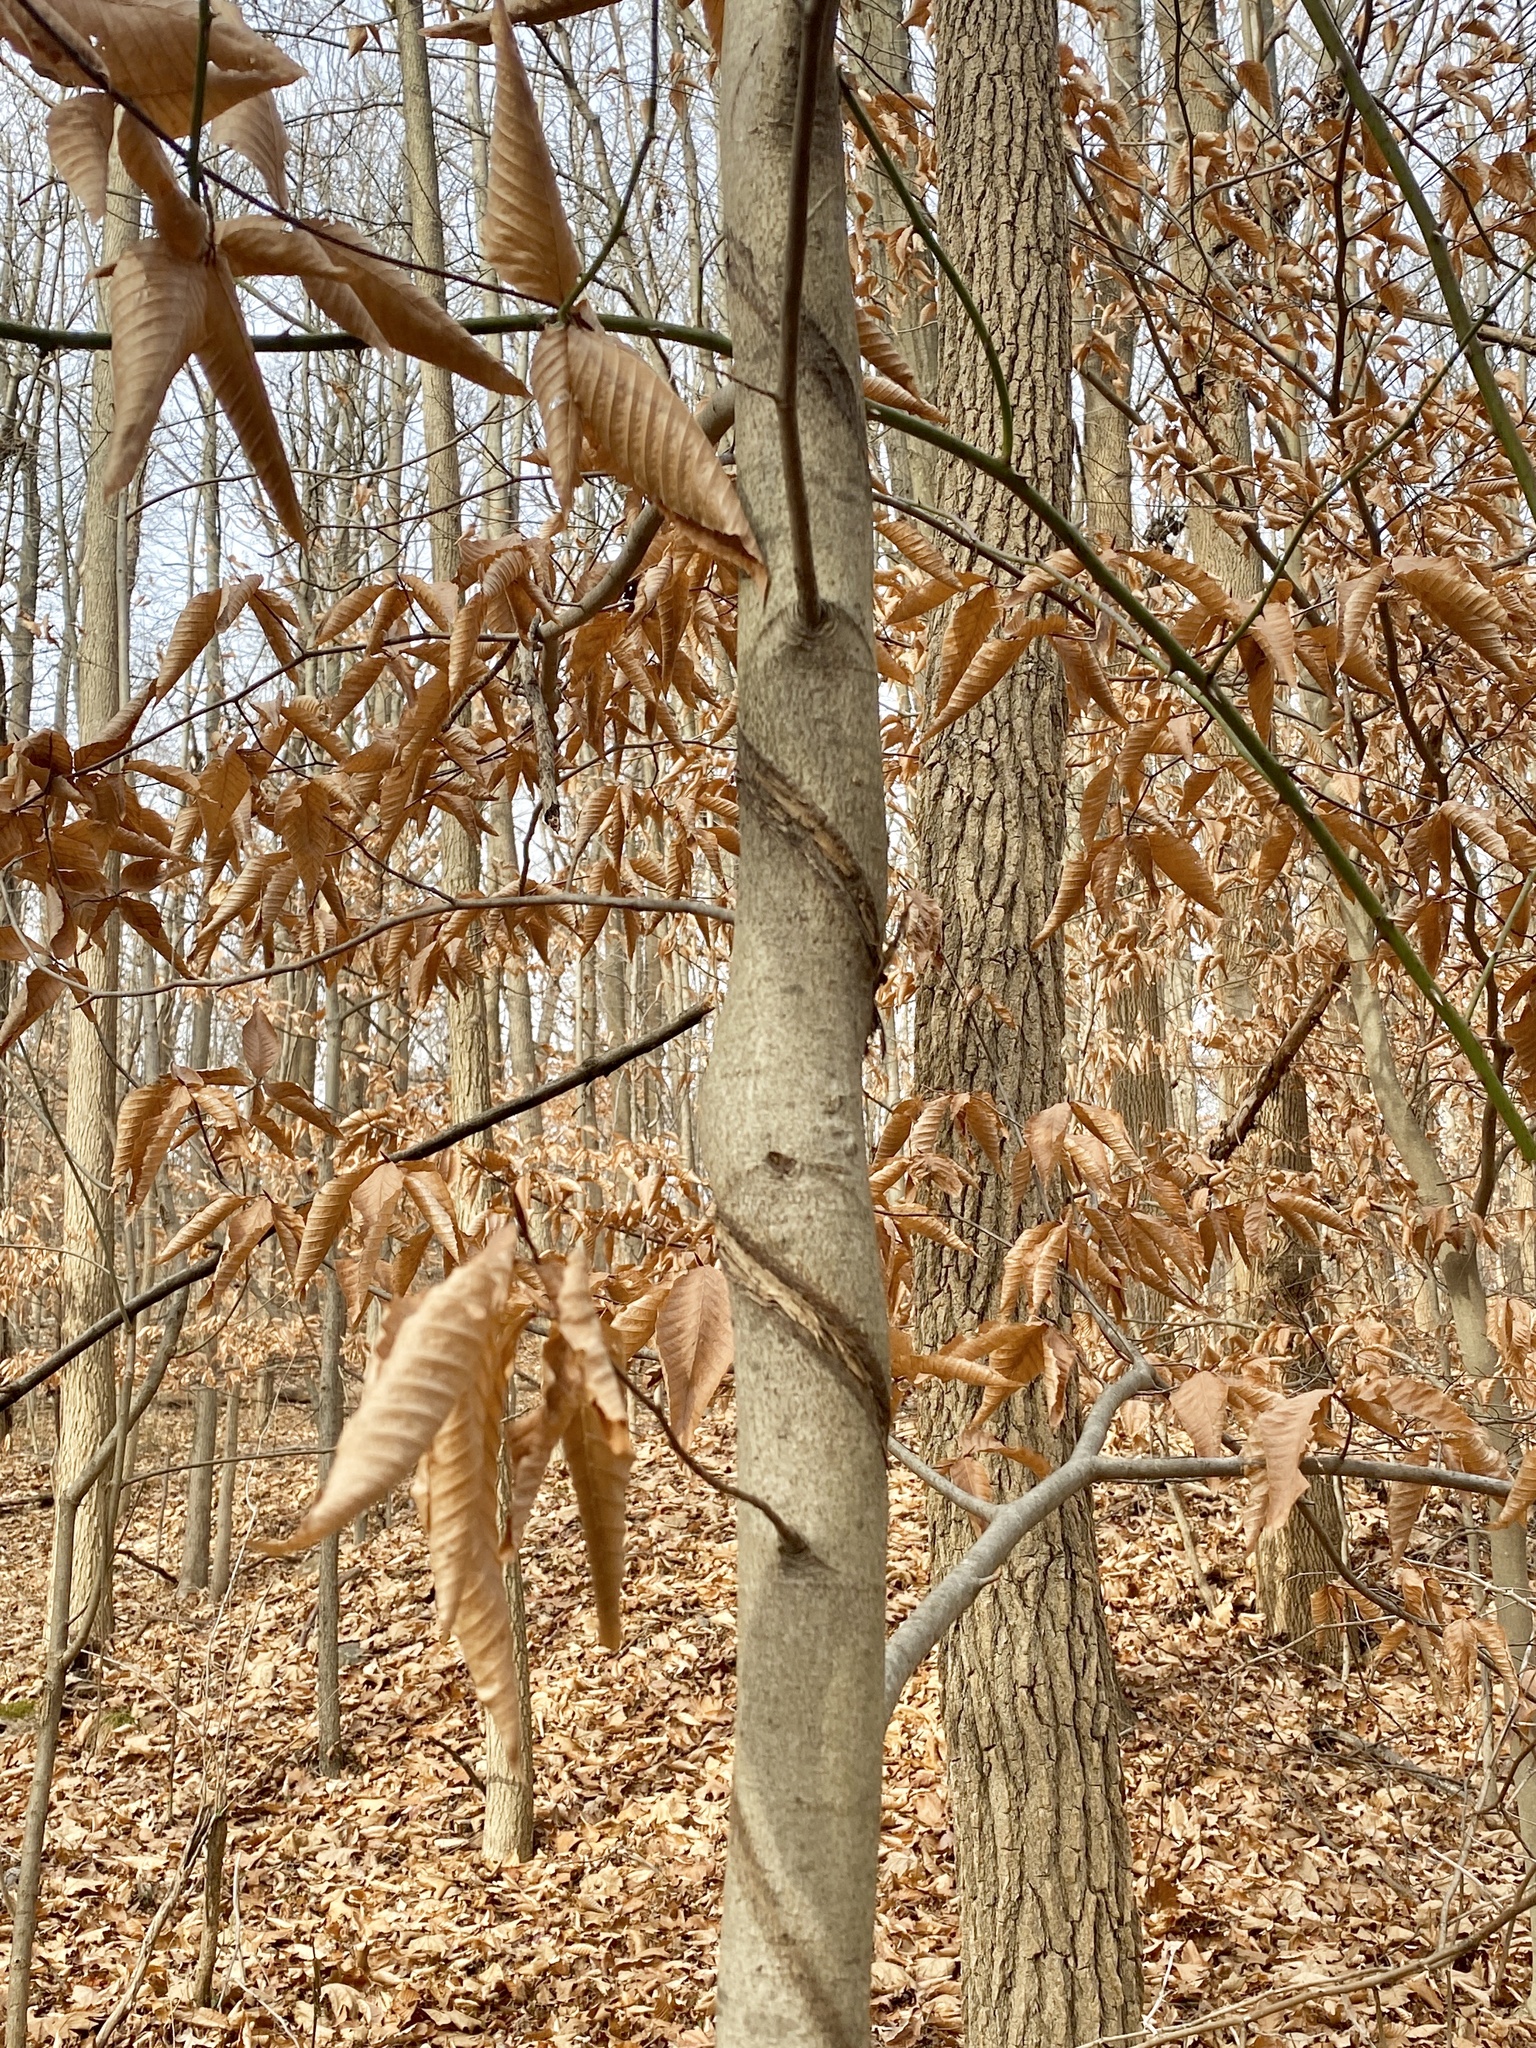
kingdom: Plantae
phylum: Tracheophyta
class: Magnoliopsida
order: Fagales
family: Fagaceae
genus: Fagus
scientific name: Fagus grandifolia
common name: American beech
